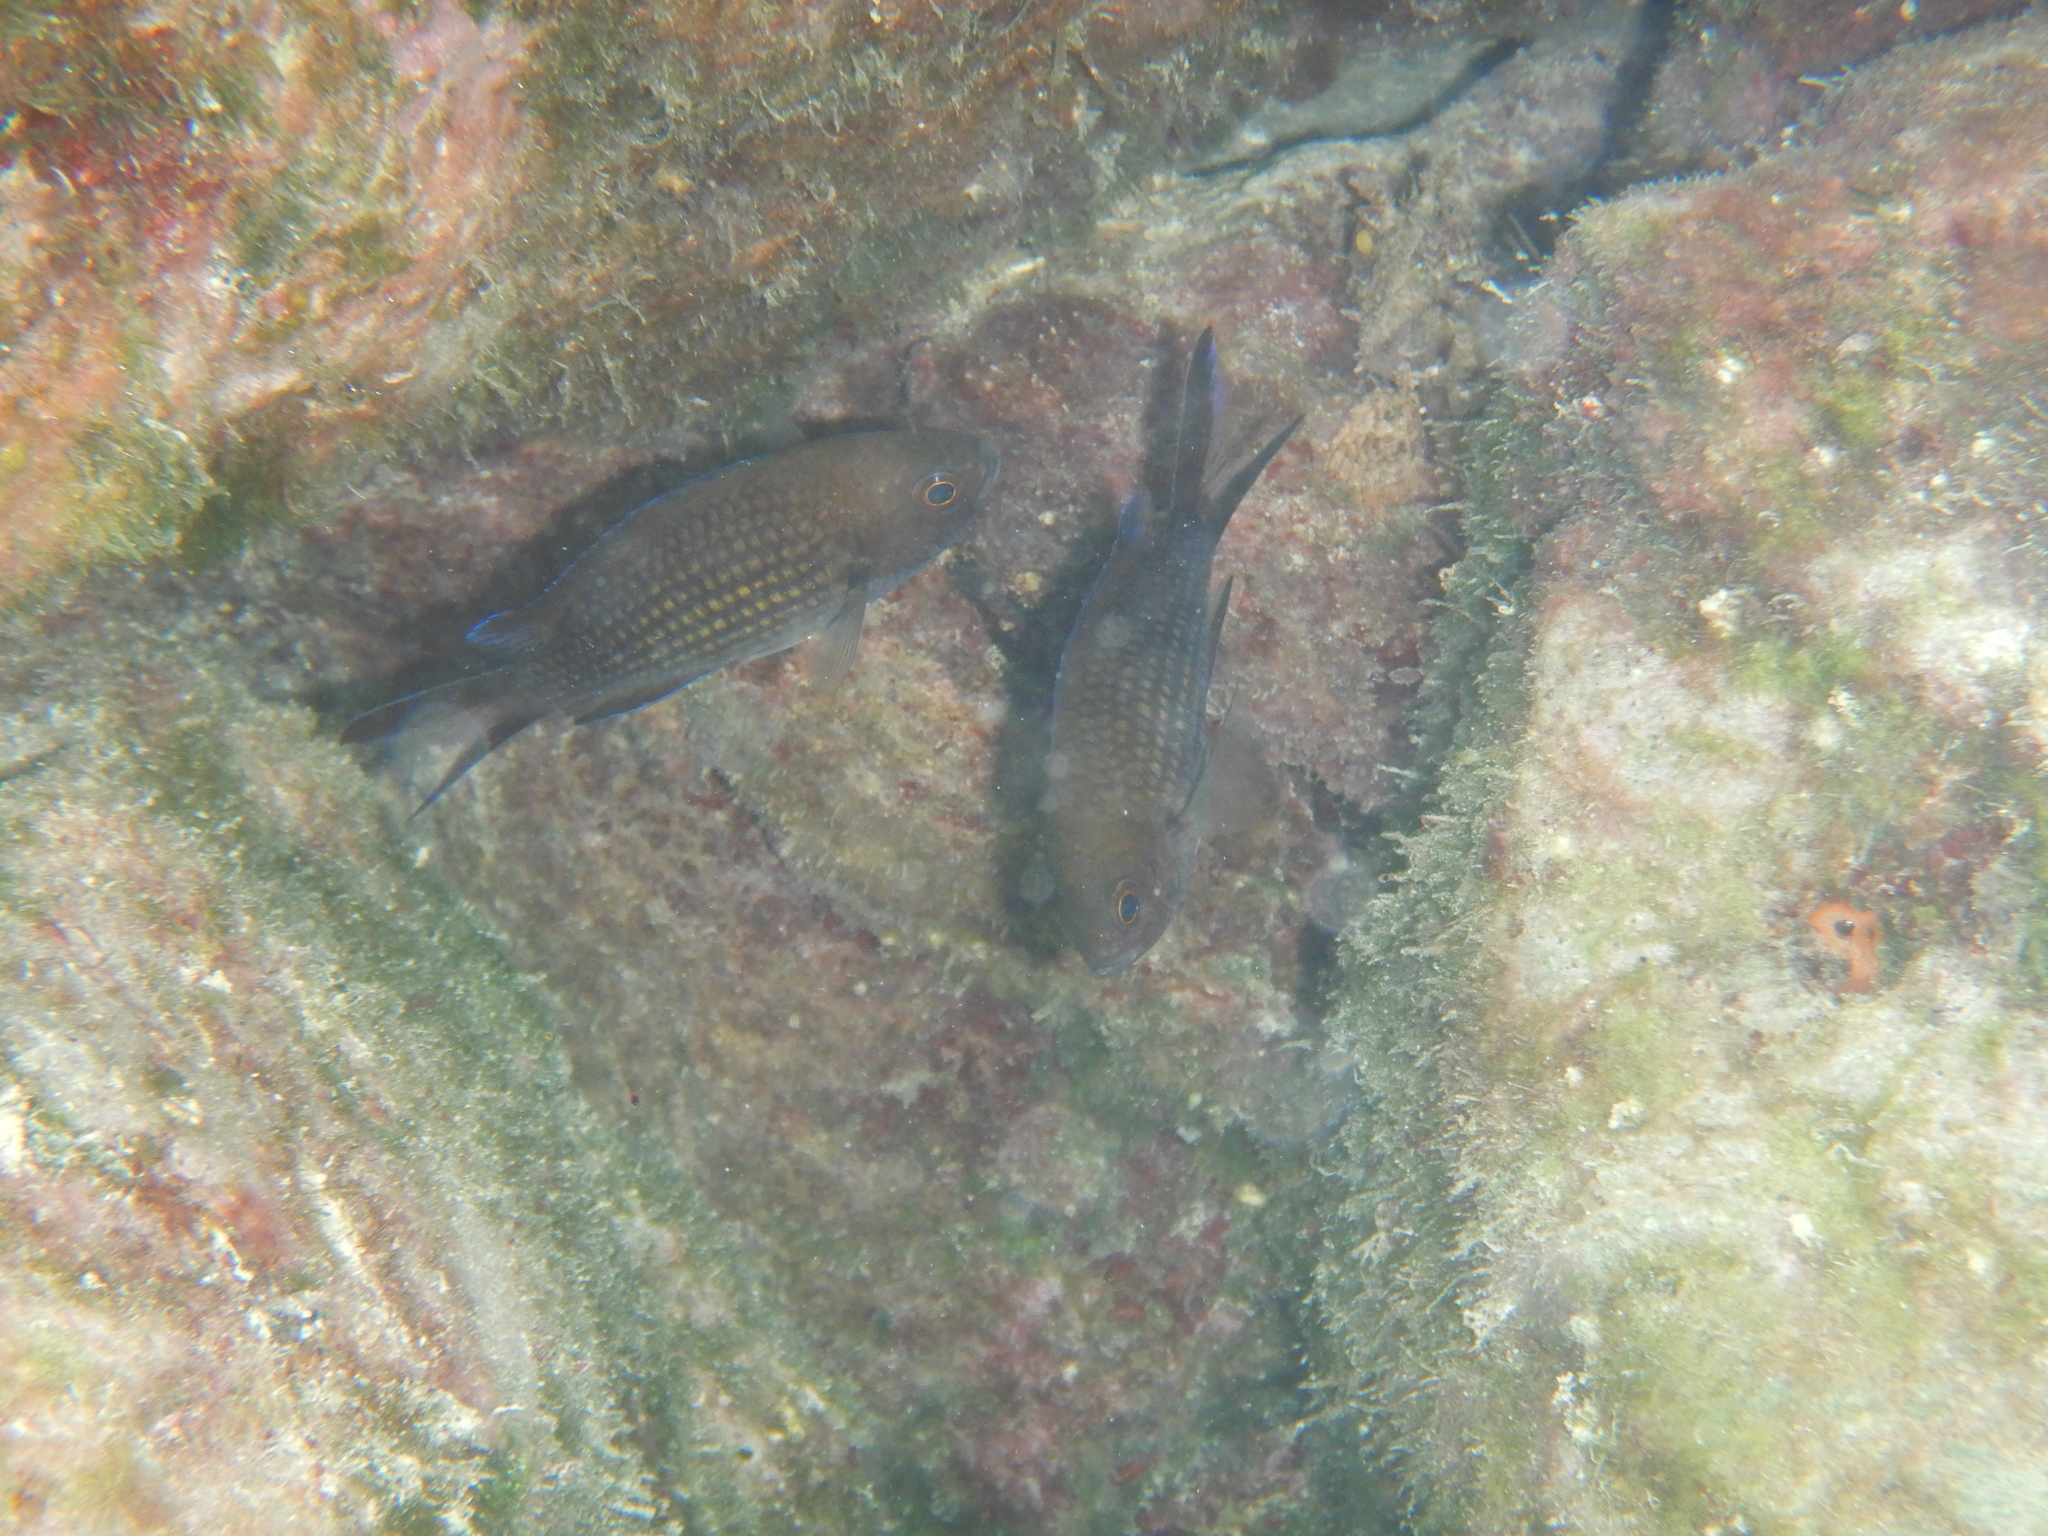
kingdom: Animalia
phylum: Chordata
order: Perciformes
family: Pomacentridae
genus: Chromis
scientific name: Chromis chromis
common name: Damselfish
